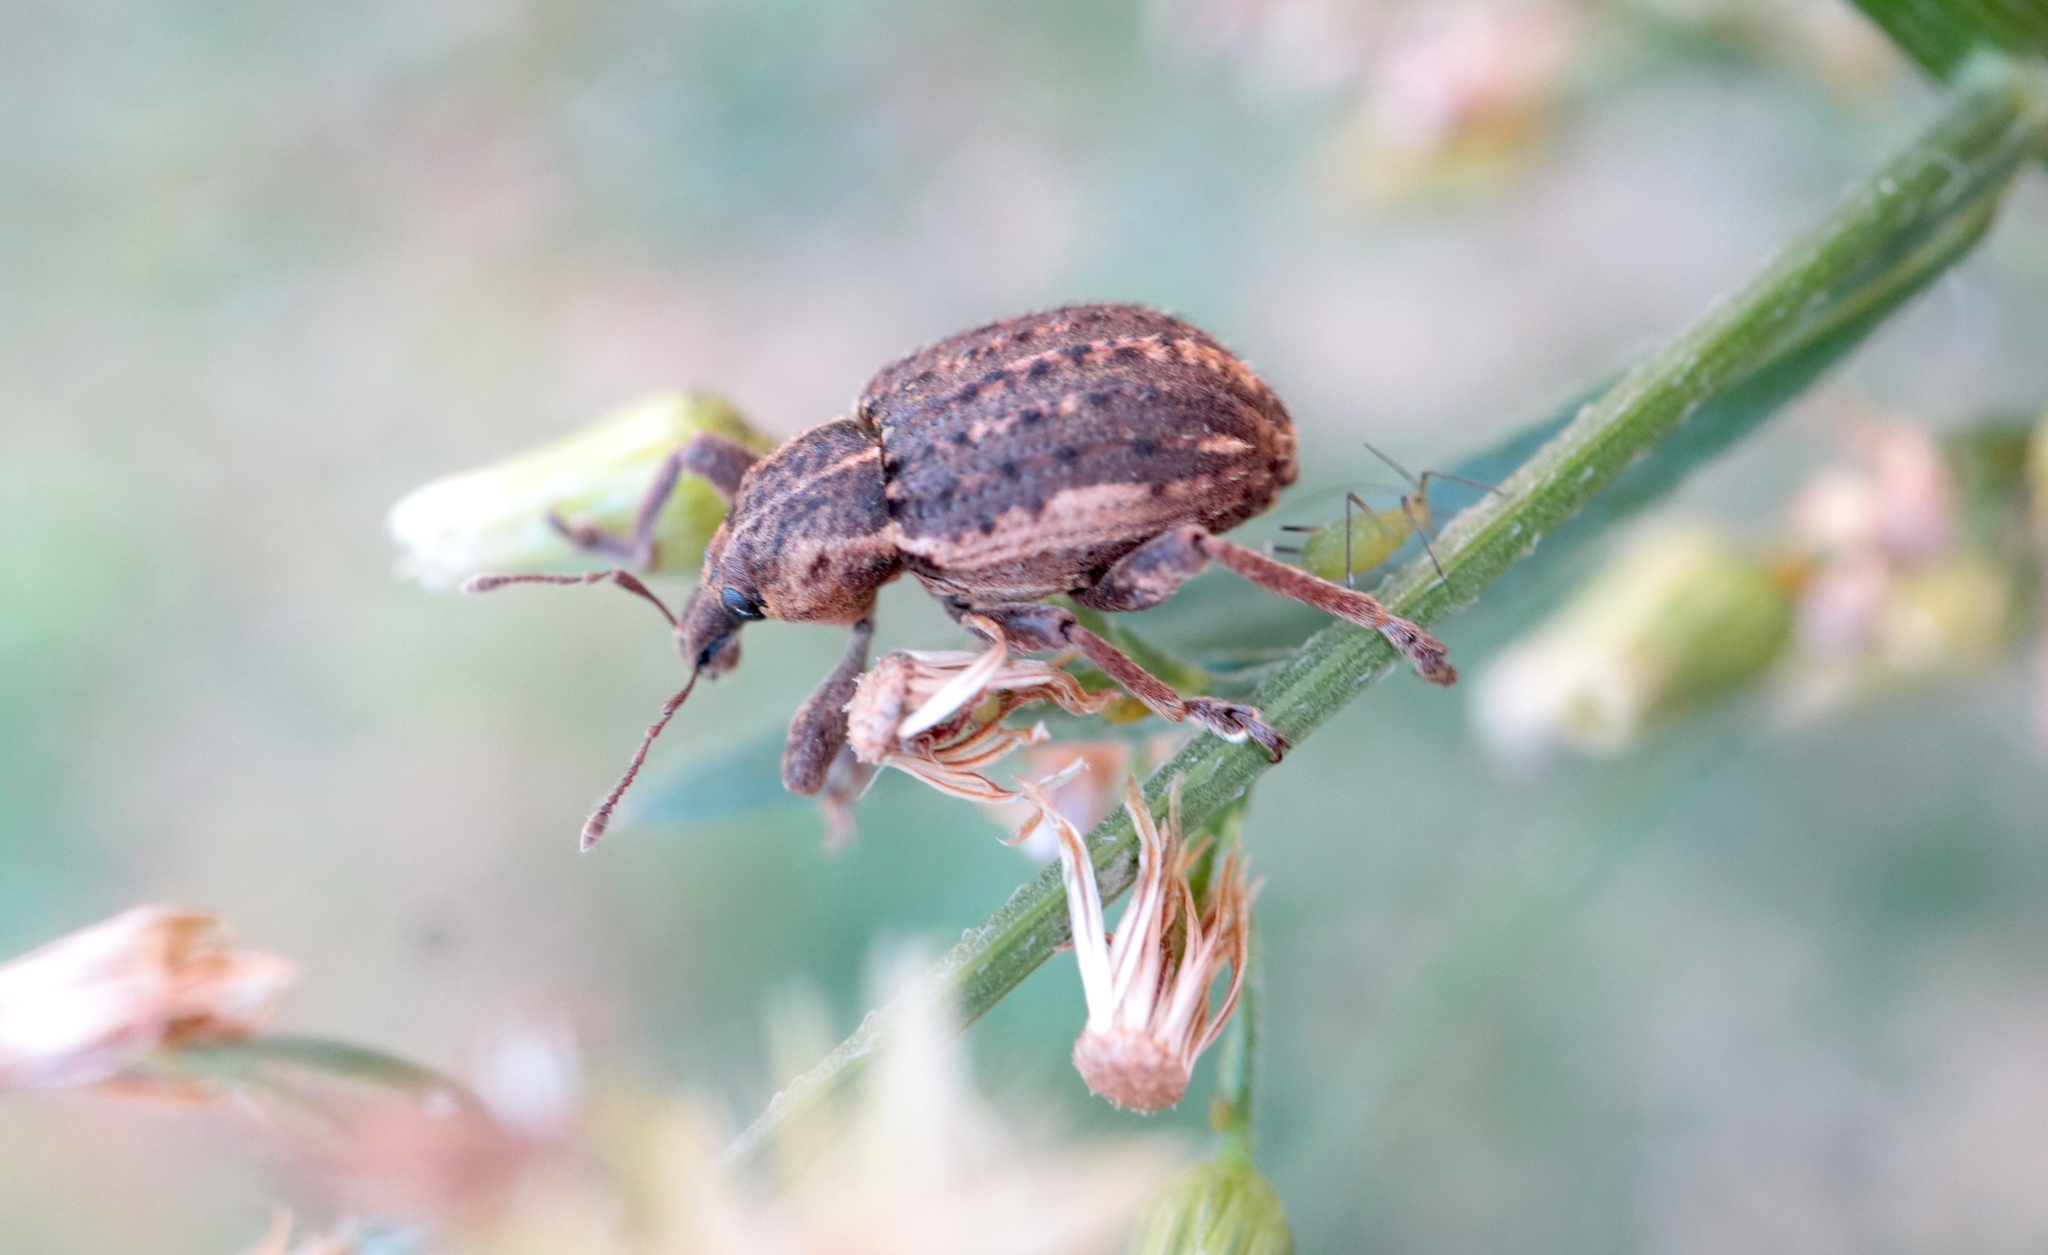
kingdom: Animalia
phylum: Arthropoda
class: Insecta
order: Coleoptera
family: Curculionidae
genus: Brachypera
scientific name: Brachypera zoilus
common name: Clover leaf weevil
